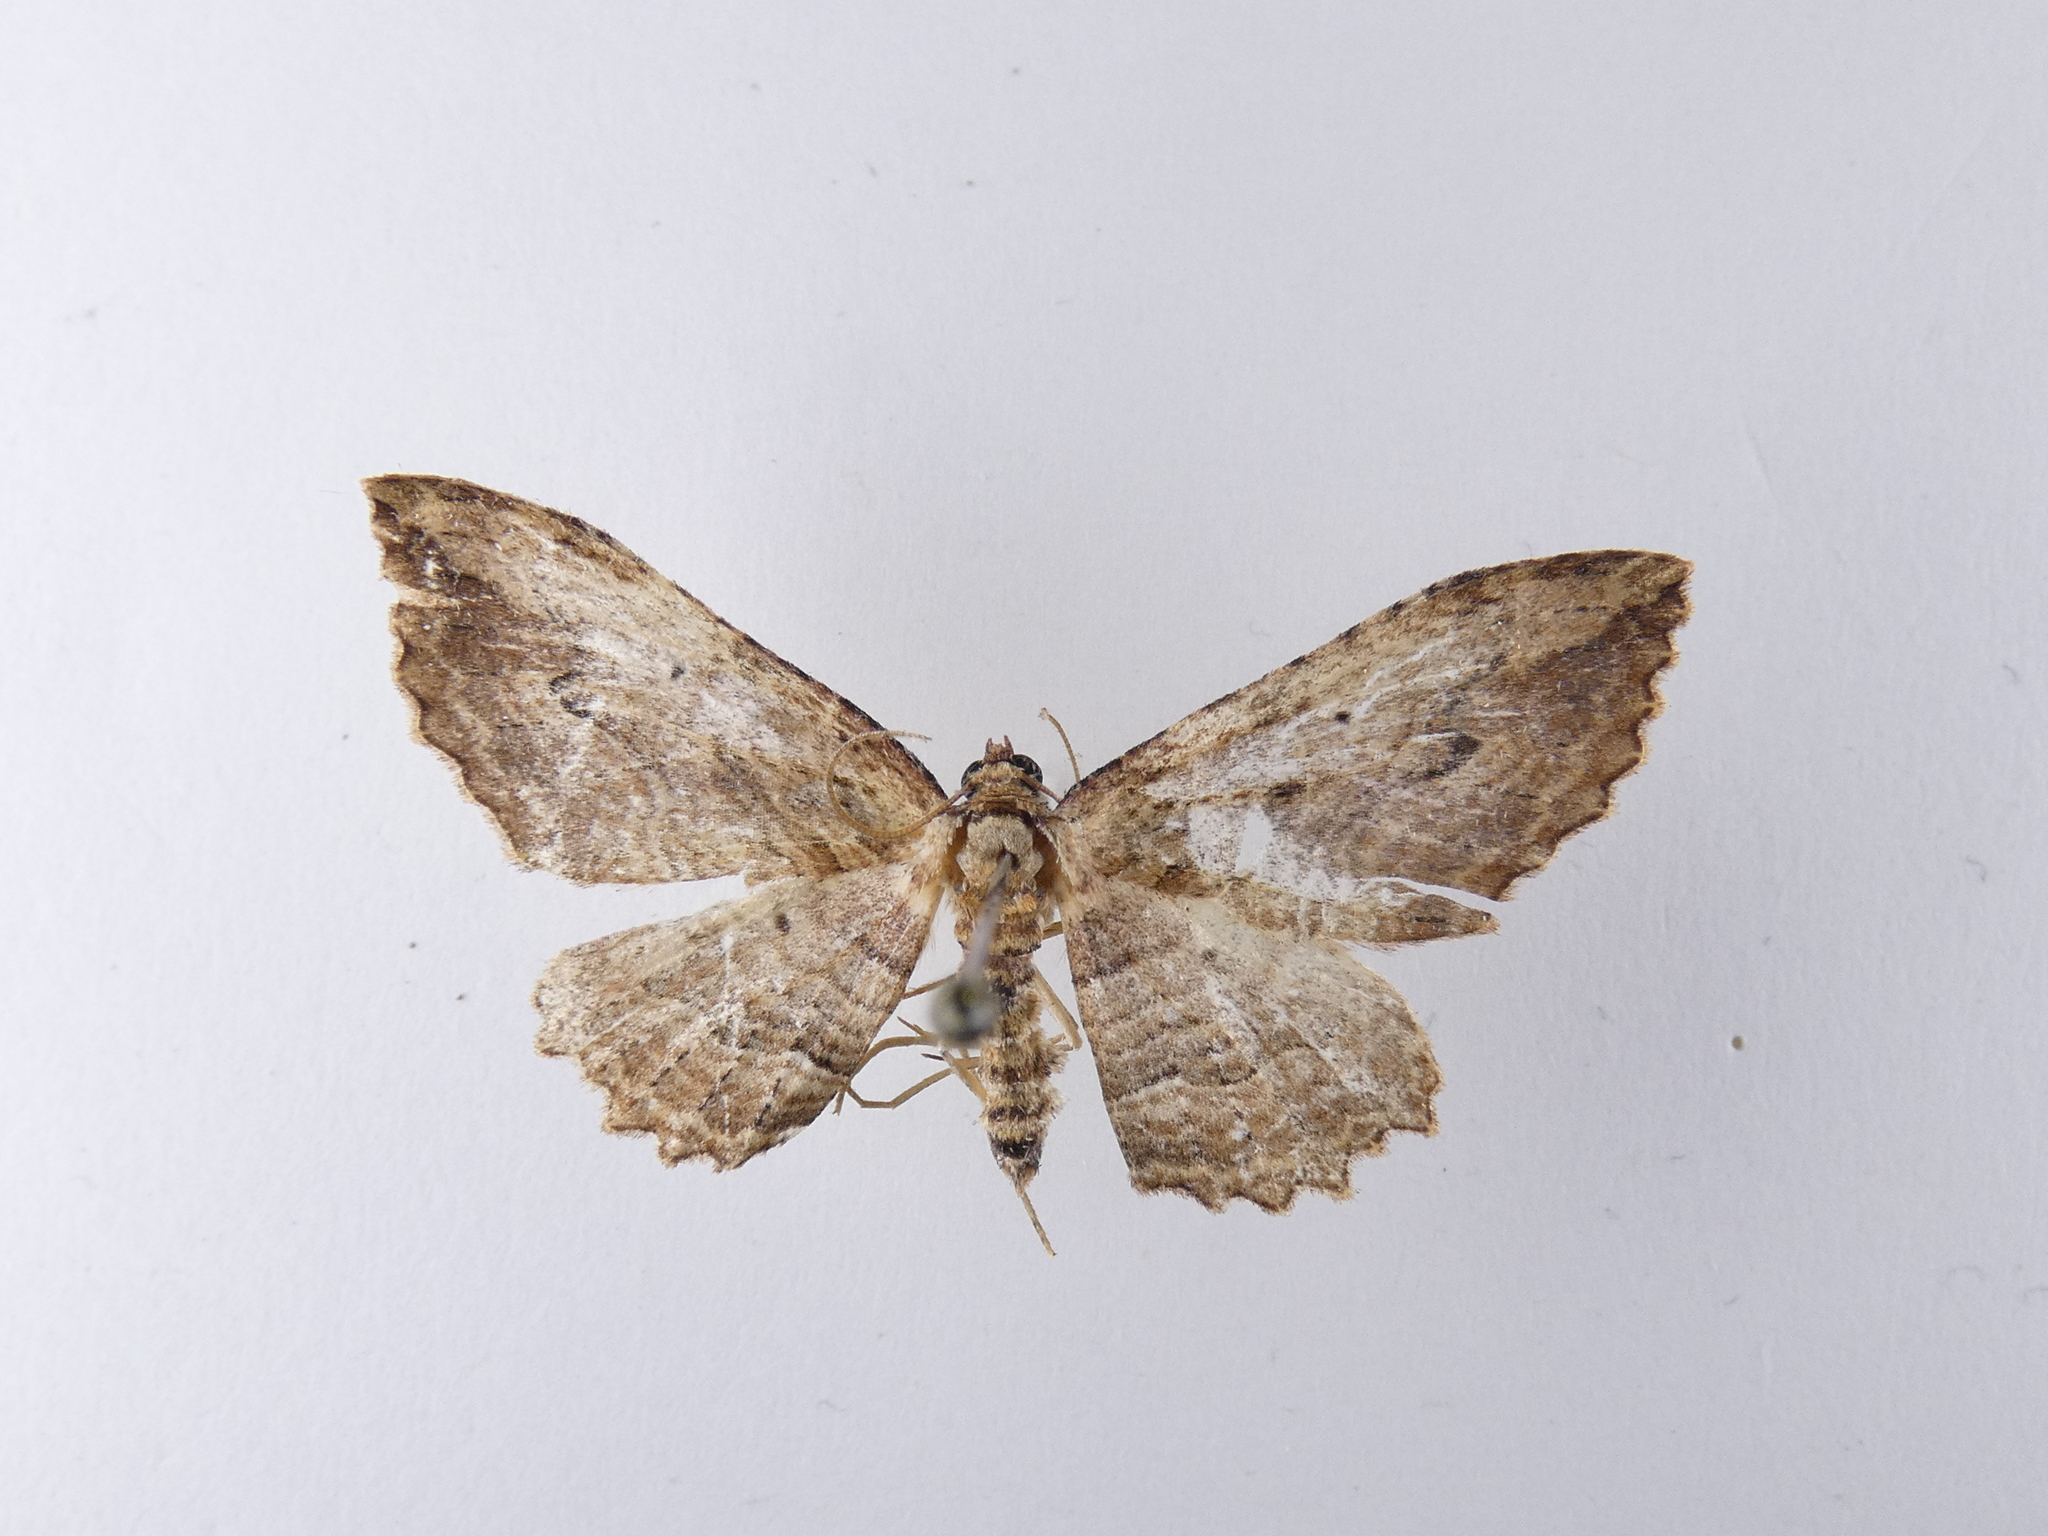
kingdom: Animalia
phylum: Arthropoda
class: Insecta
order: Lepidoptera
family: Geometridae
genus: Austrocidaria
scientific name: Austrocidaria bipartita
